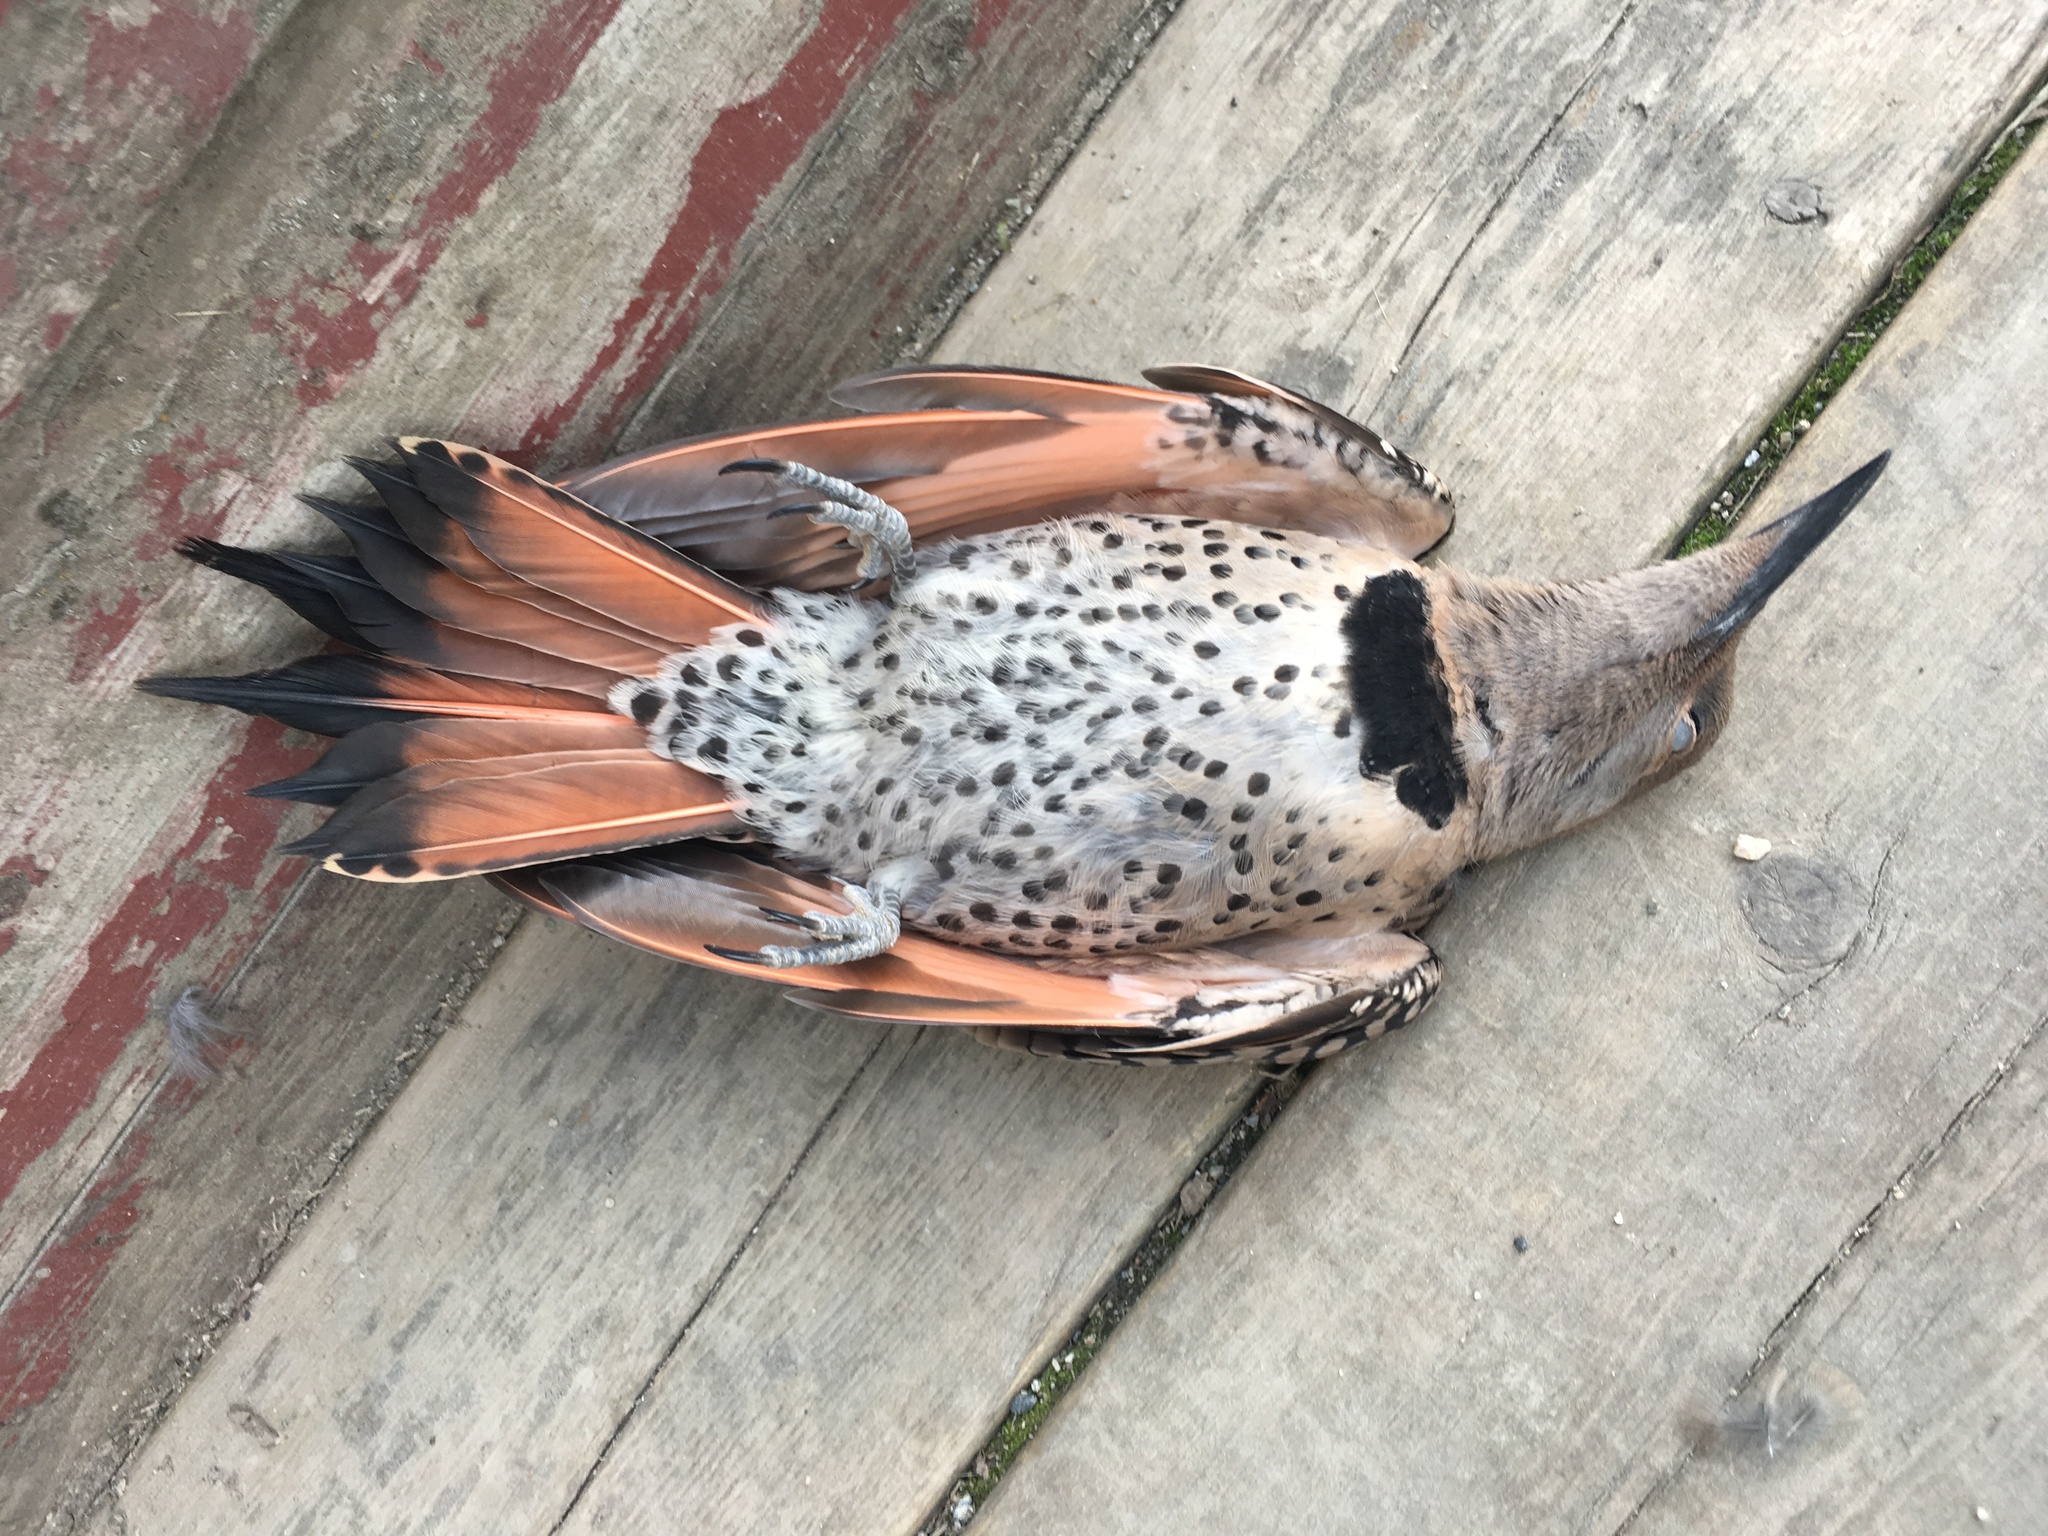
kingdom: Animalia
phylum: Chordata
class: Aves
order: Piciformes
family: Picidae
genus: Colaptes
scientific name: Colaptes auratus
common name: Northern flicker
